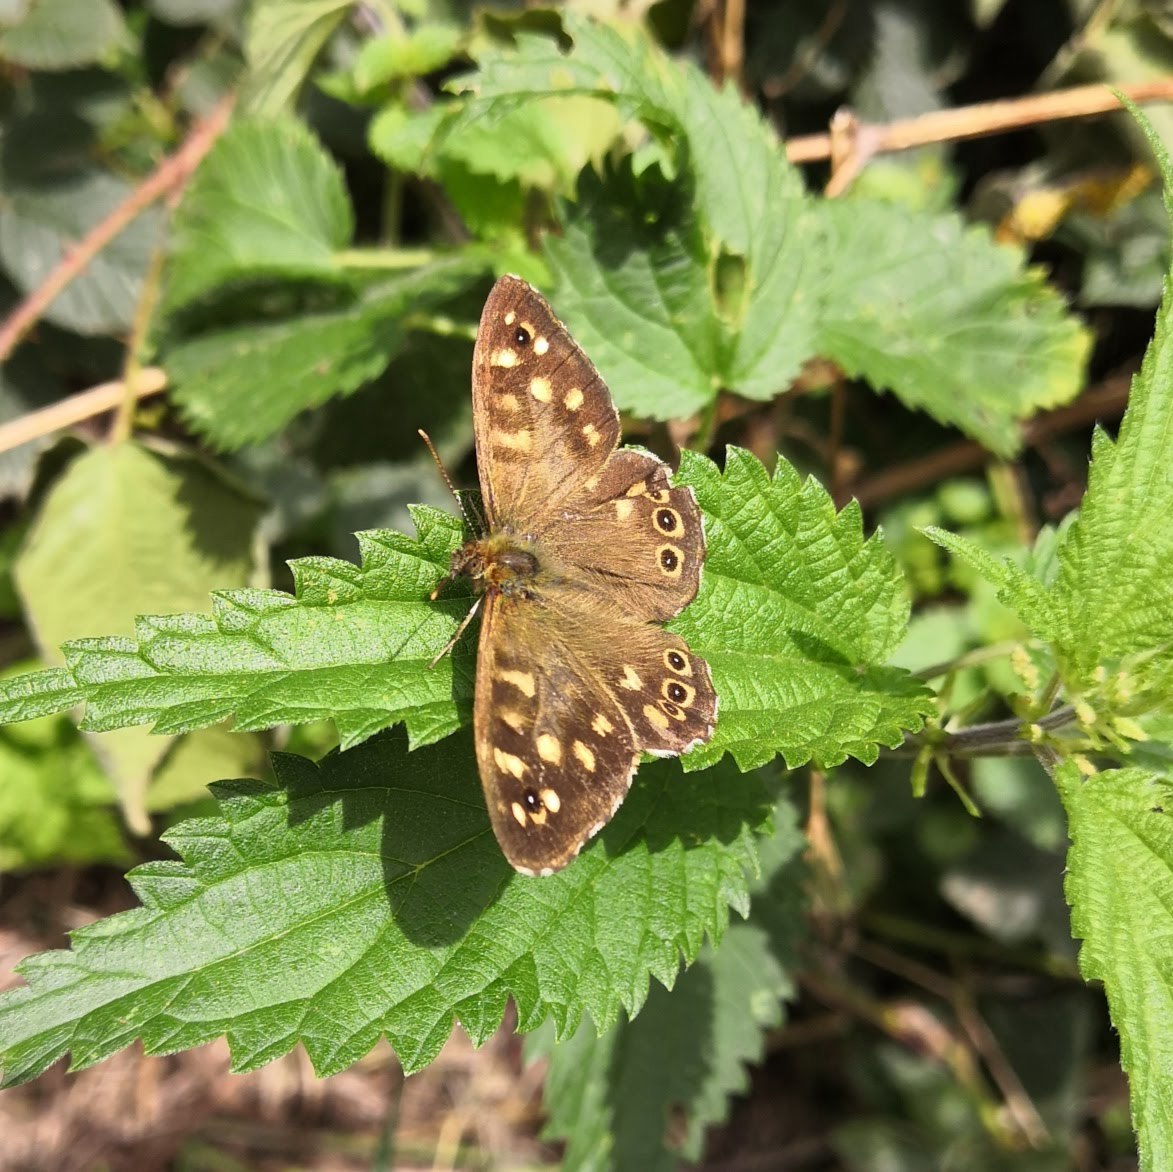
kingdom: Animalia
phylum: Arthropoda
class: Insecta
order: Lepidoptera
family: Nymphalidae
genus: Pararge
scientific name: Pararge aegeria
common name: Speckled wood
